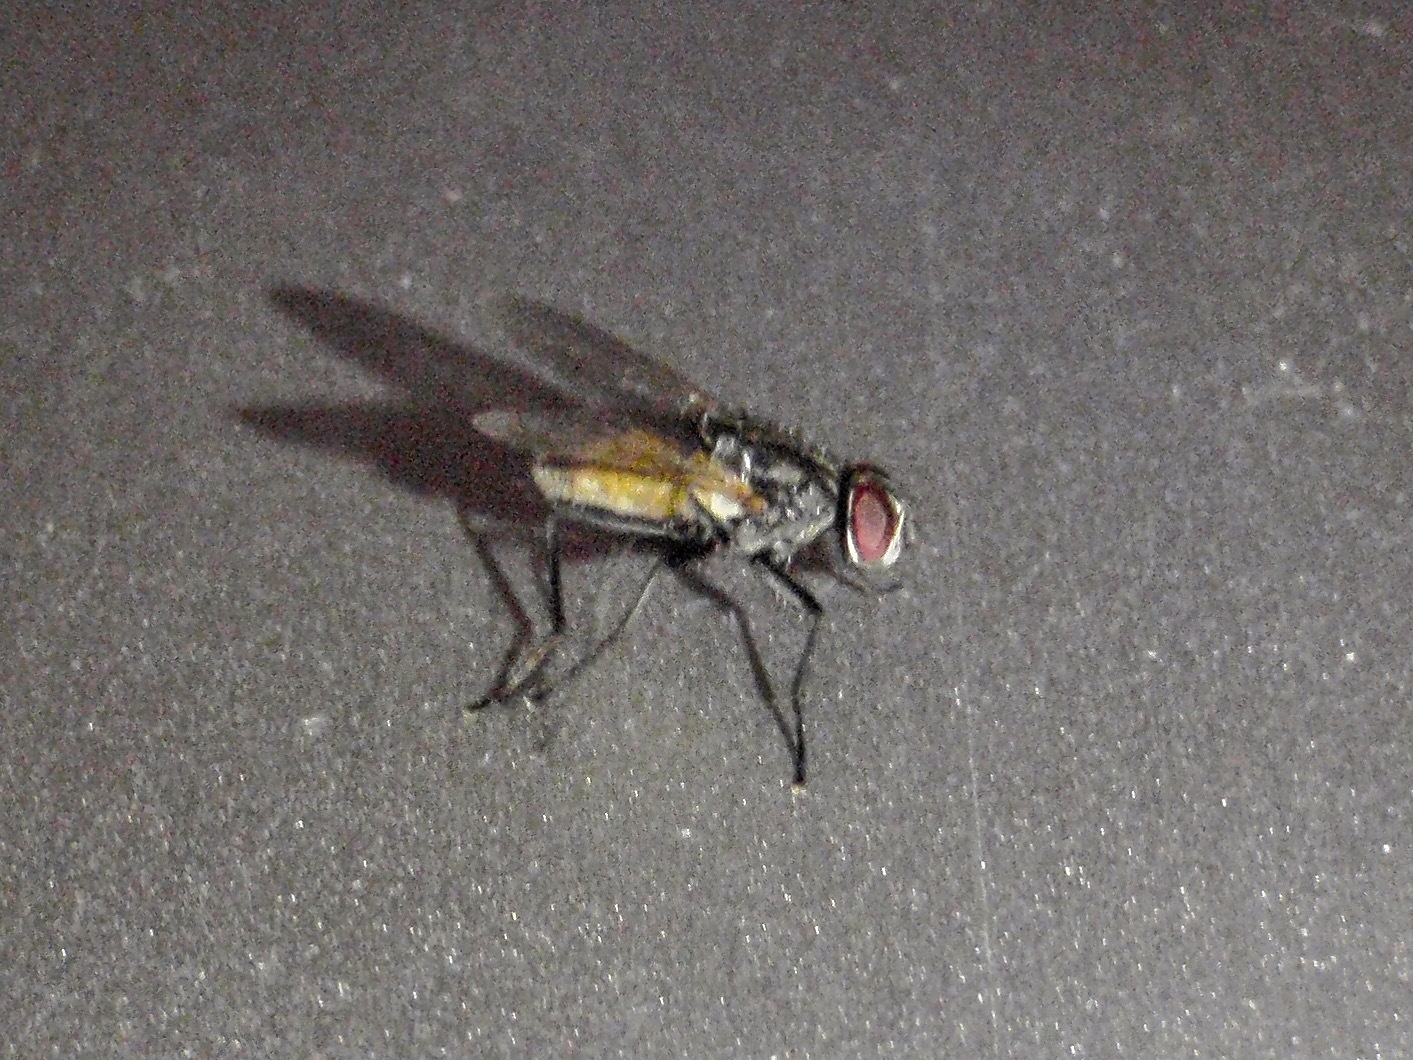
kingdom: Animalia
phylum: Arthropoda
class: Insecta
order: Diptera
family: Muscidae
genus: Musca
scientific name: Musca domestica
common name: House fly
